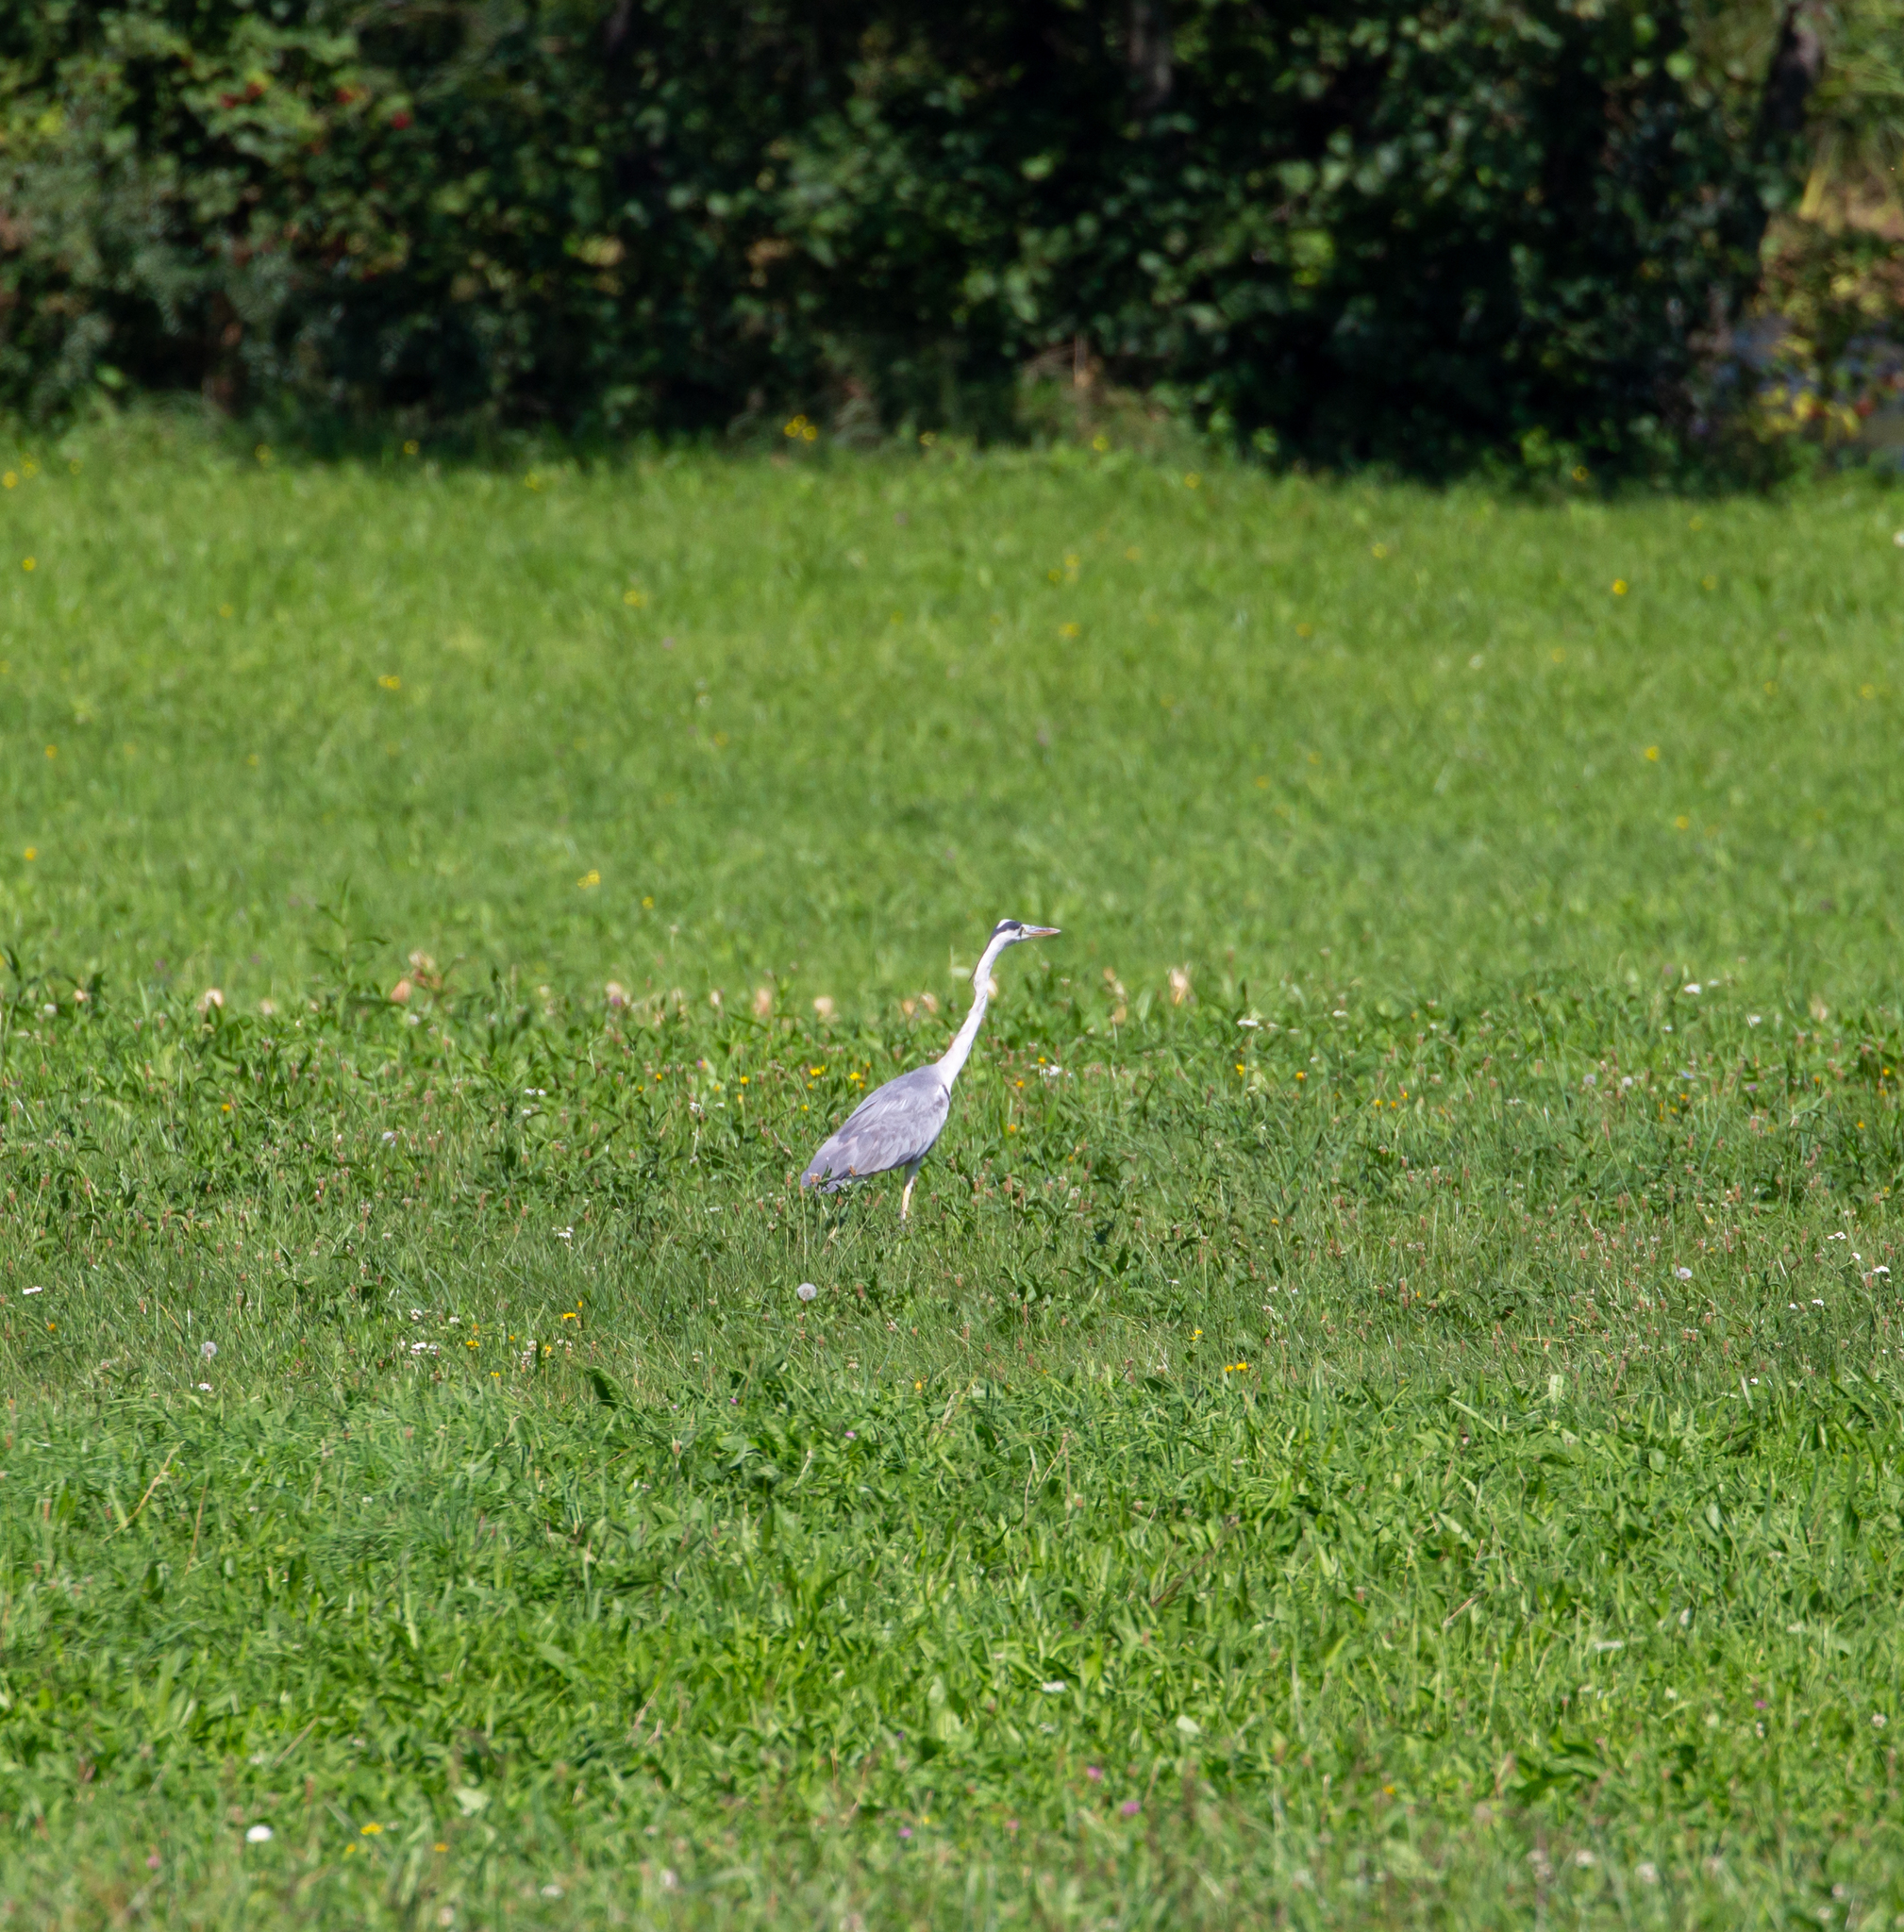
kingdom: Animalia
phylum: Chordata
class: Aves
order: Pelecaniformes
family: Ardeidae
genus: Ardea
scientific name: Ardea cinerea
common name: Grey heron
